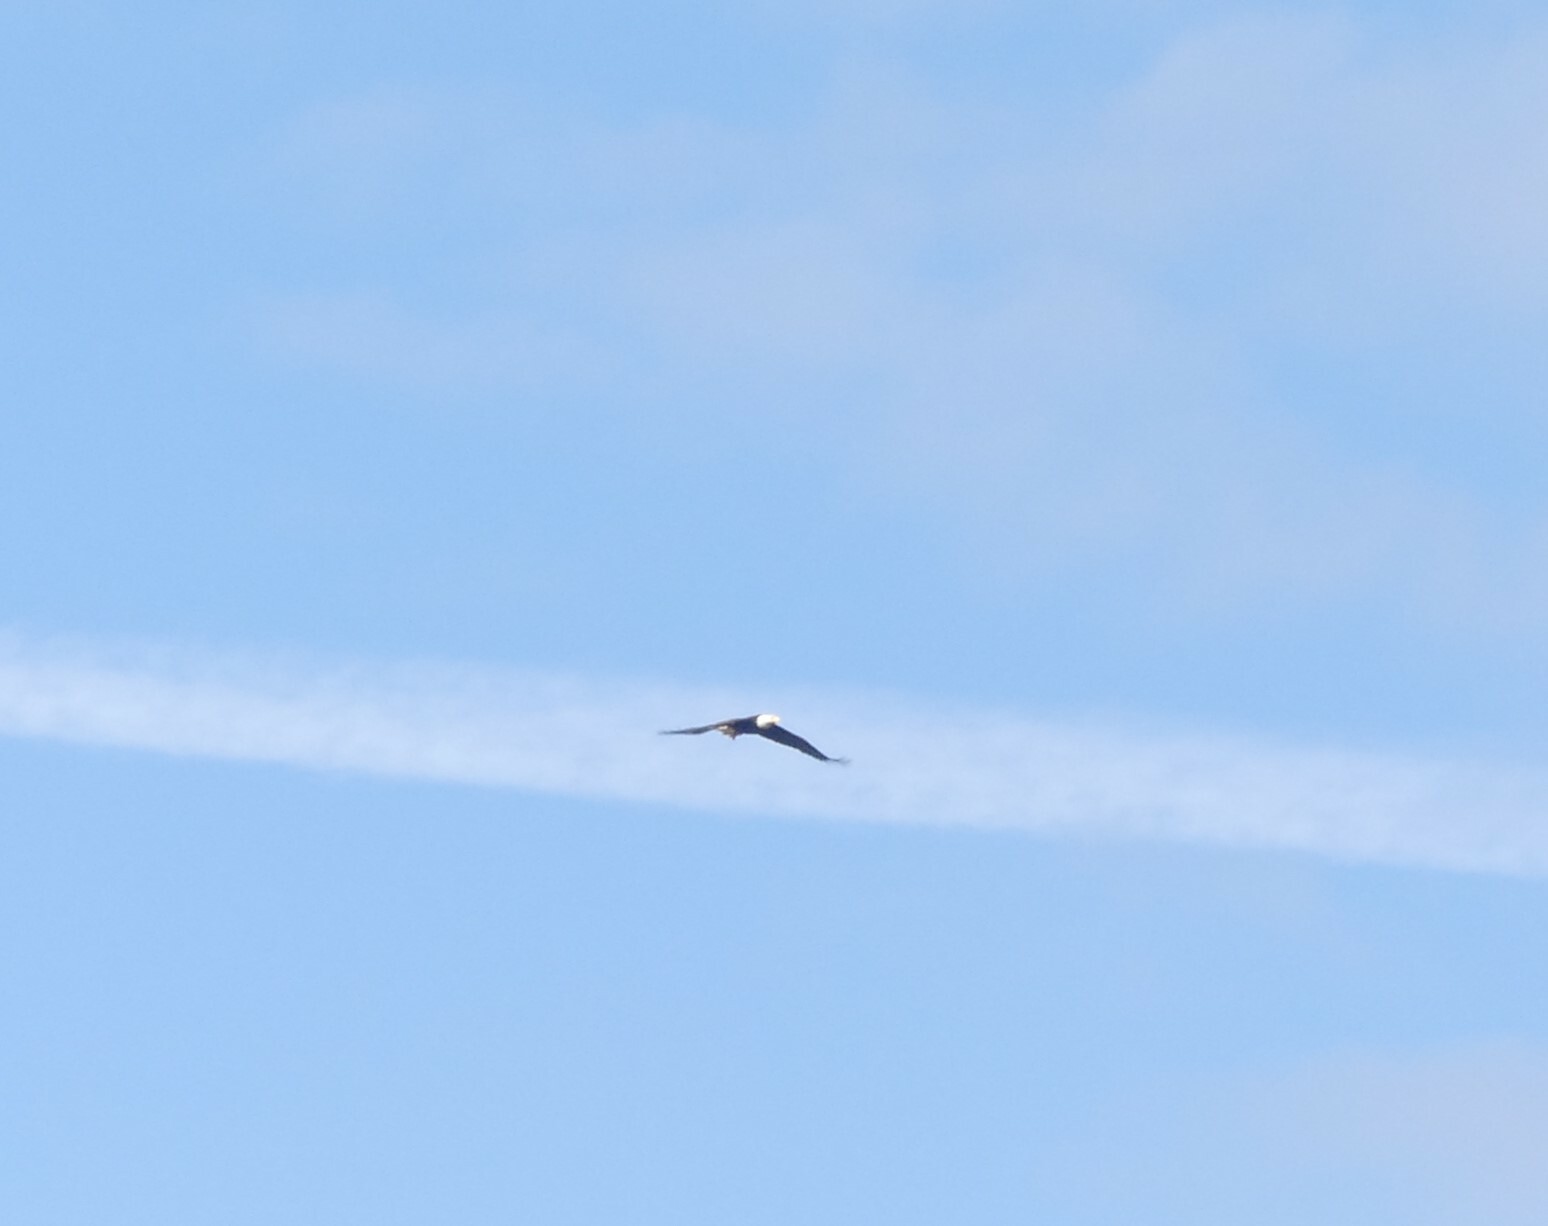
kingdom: Animalia
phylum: Chordata
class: Aves
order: Accipitriformes
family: Accipitridae
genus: Haliaeetus
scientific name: Haliaeetus leucocephalus
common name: Bald eagle
